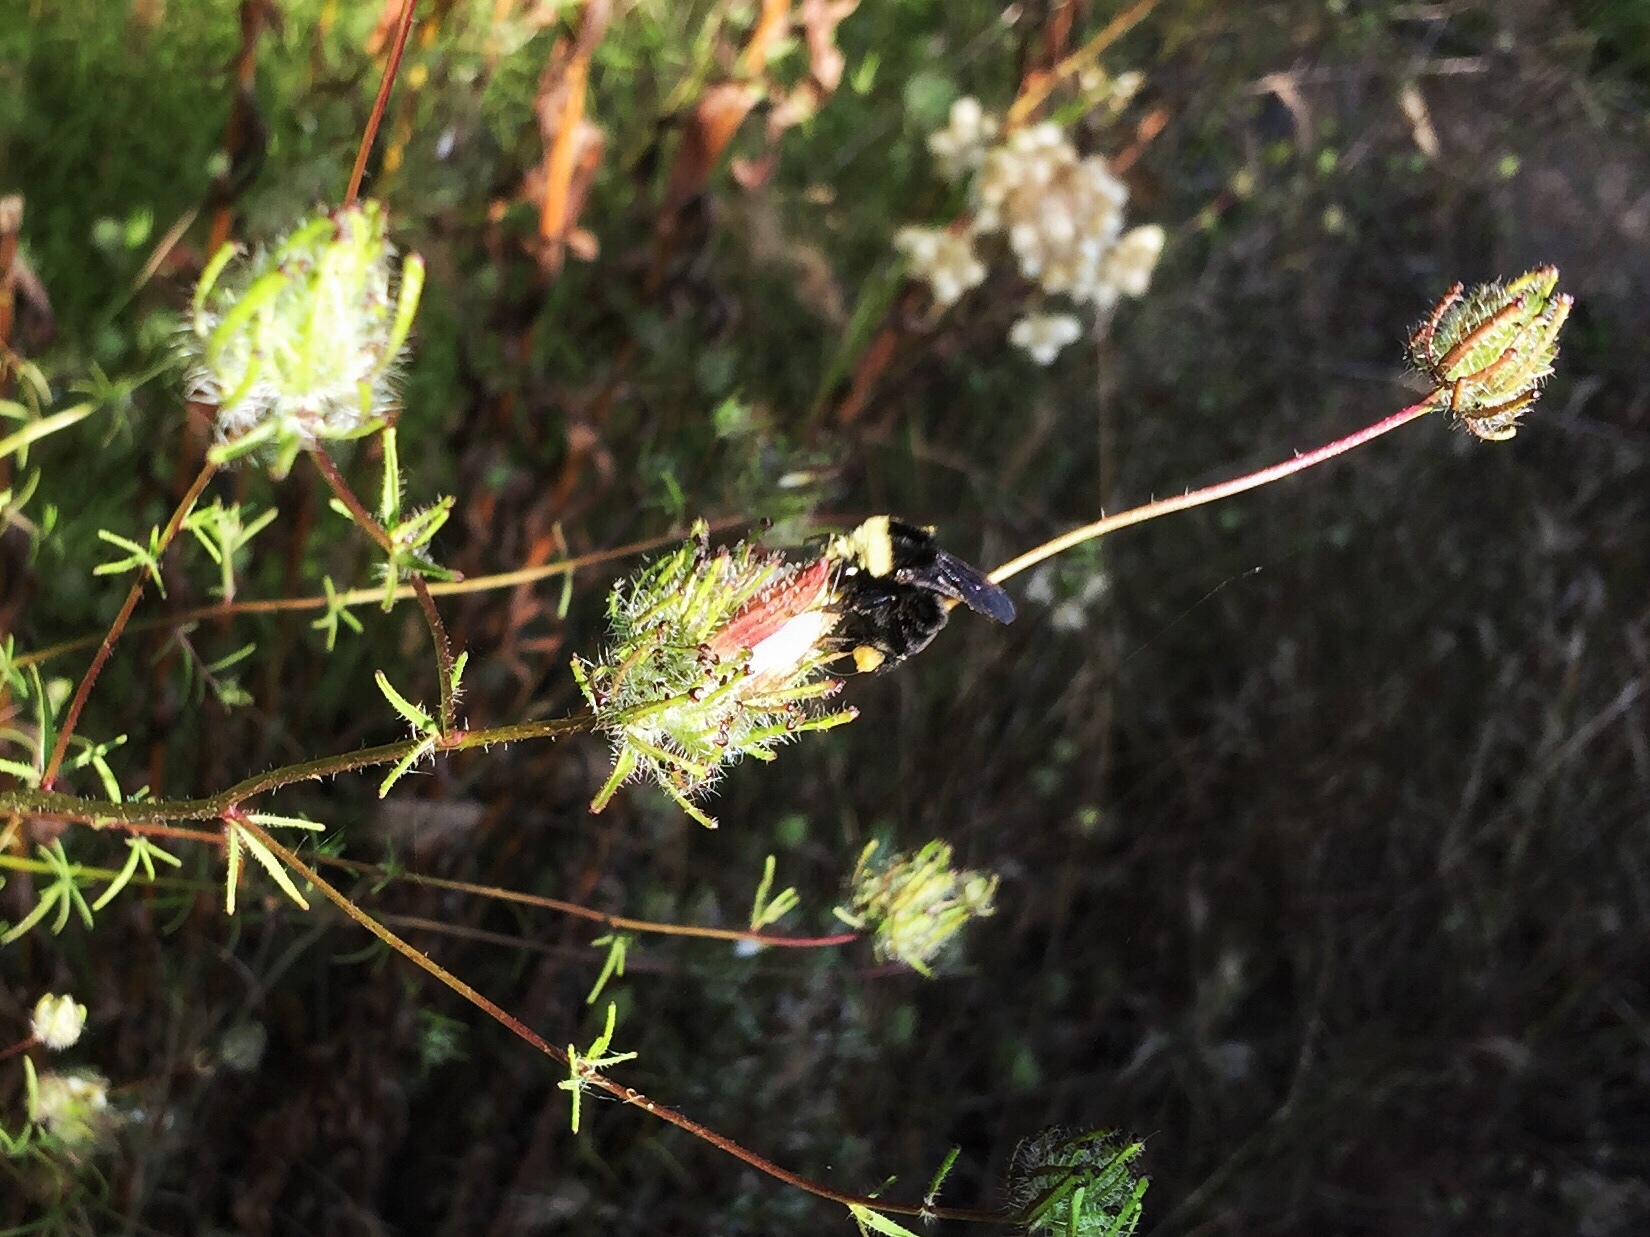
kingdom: Animalia
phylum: Arthropoda
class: Insecta
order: Hymenoptera
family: Apidae
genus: Bombus
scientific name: Bombus vosnesenskii
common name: Vosnesensky bumble bee
